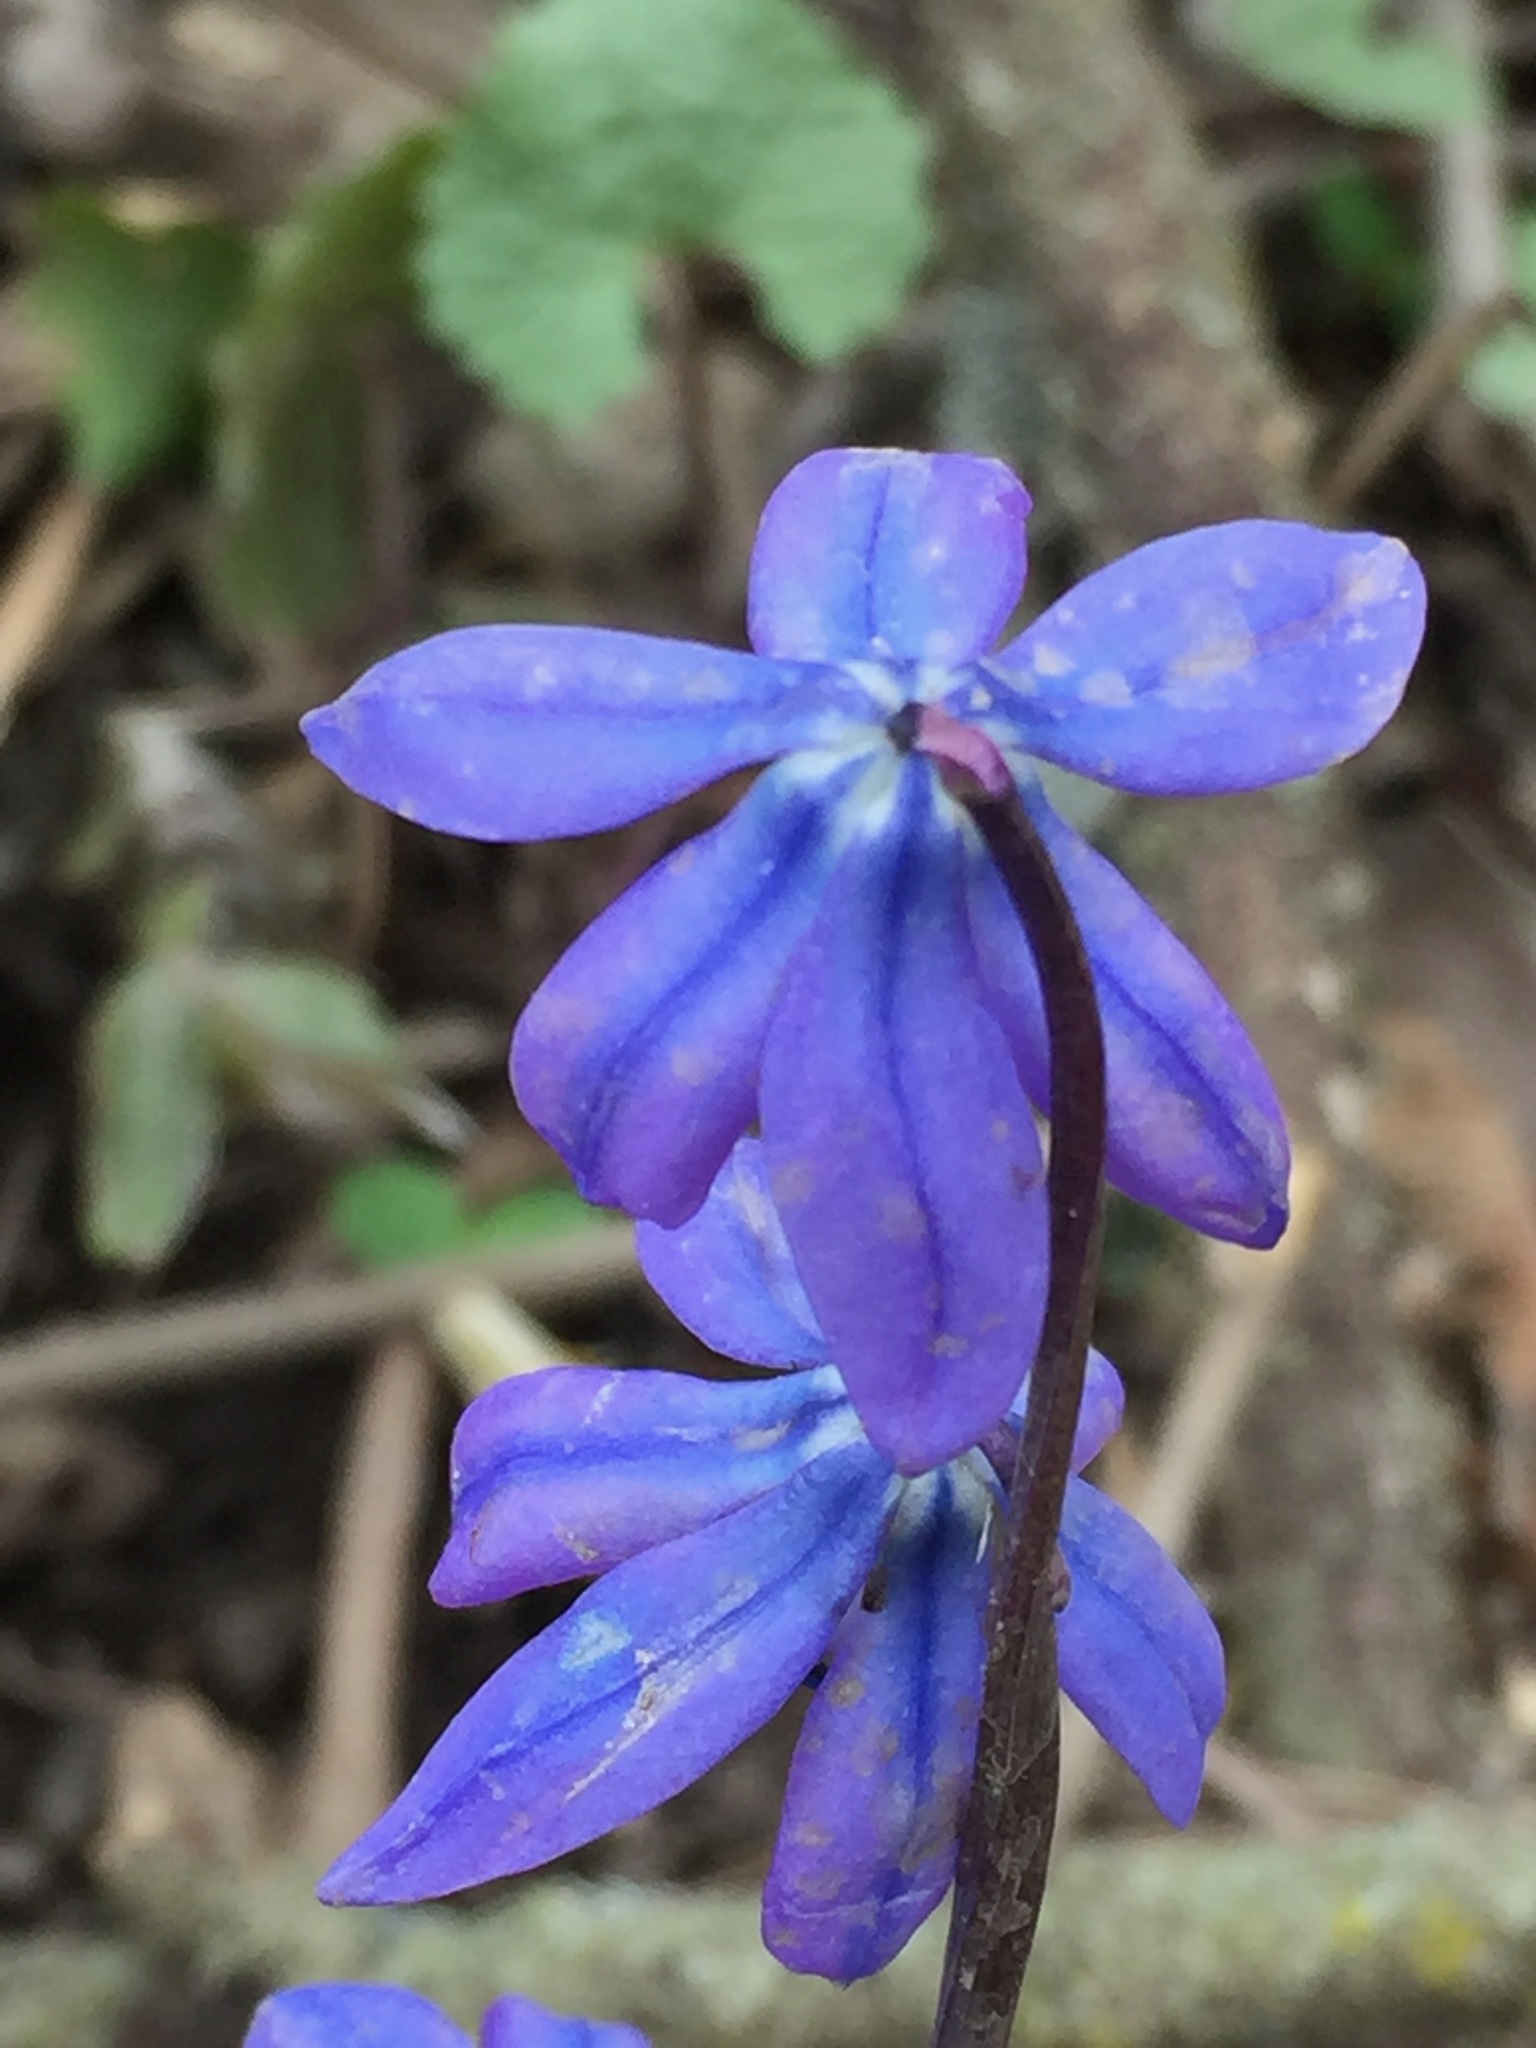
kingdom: Plantae
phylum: Tracheophyta
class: Liliopsida
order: Asparagales
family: Asparagaceae
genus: Scilla
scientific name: Scilla siberica
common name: Siberian squill
